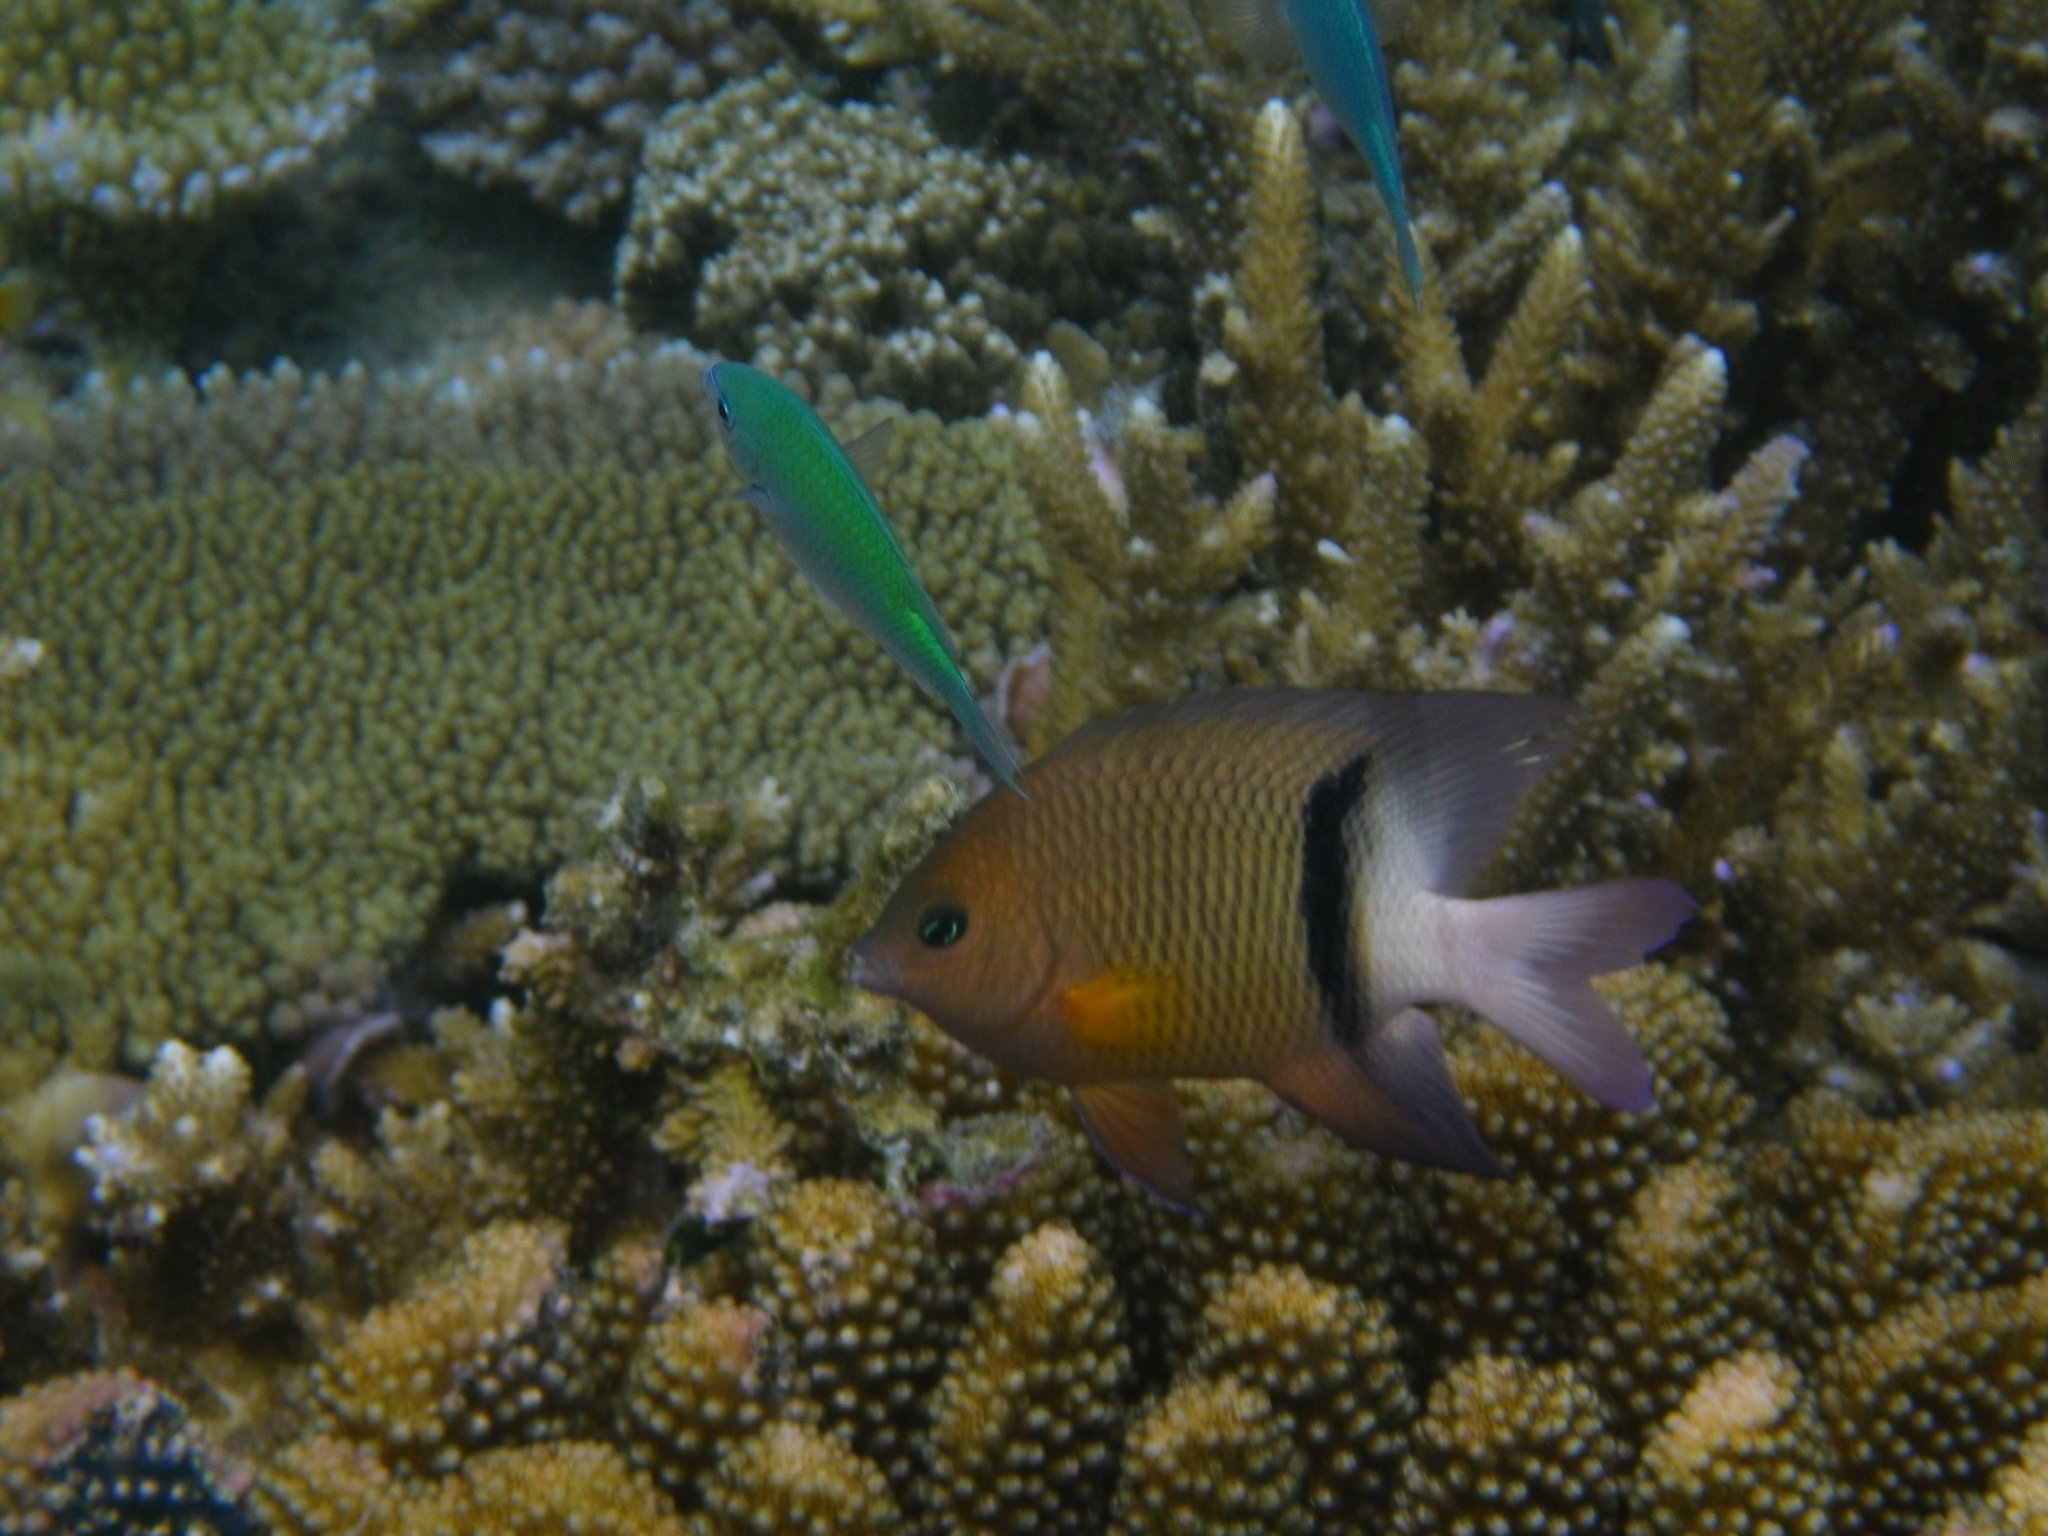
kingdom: Animalia
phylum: Chordata
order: Perciformes
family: Pomacentridae
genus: Plectroglyphidodon
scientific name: Plectroglyphidodon dickii
